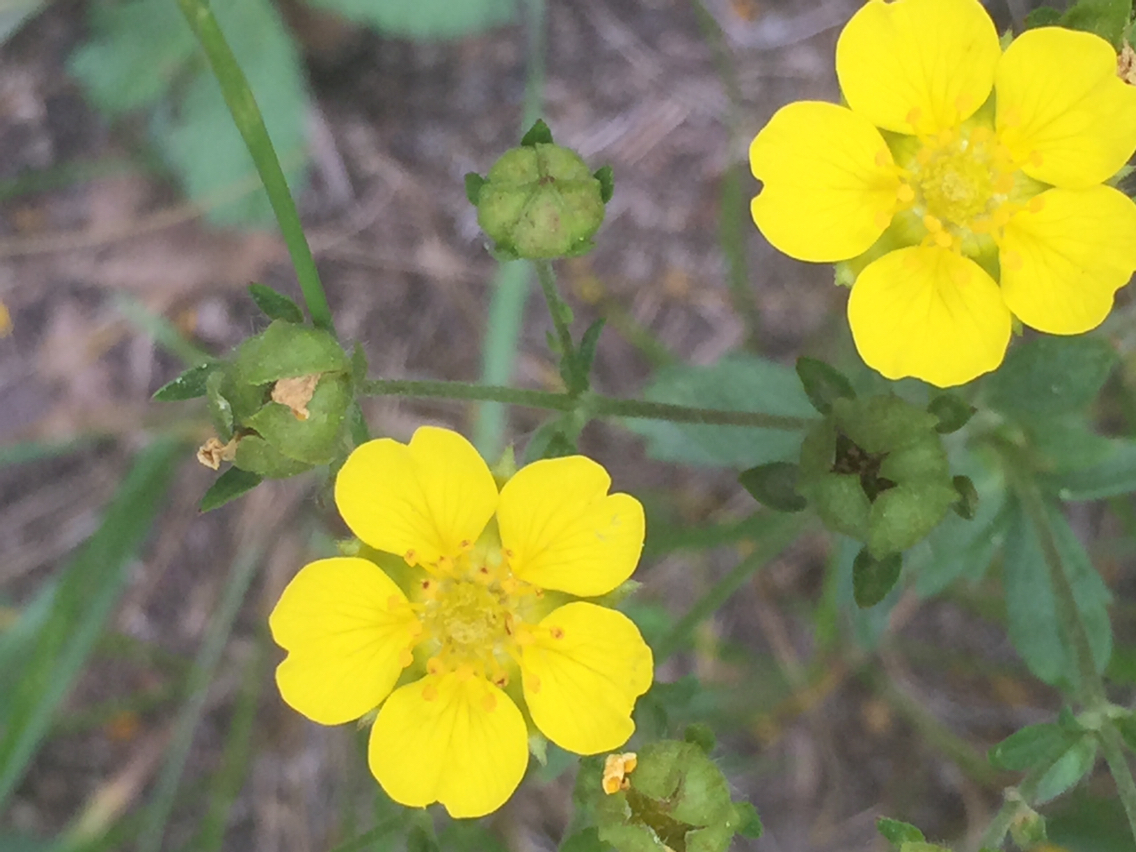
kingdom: Plantae
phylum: Tracheophyta
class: Magnoliopsida
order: Rosales
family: Rosaceae
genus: Potentilla
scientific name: Potentilla gracilis
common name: Graceful cinquefoil
